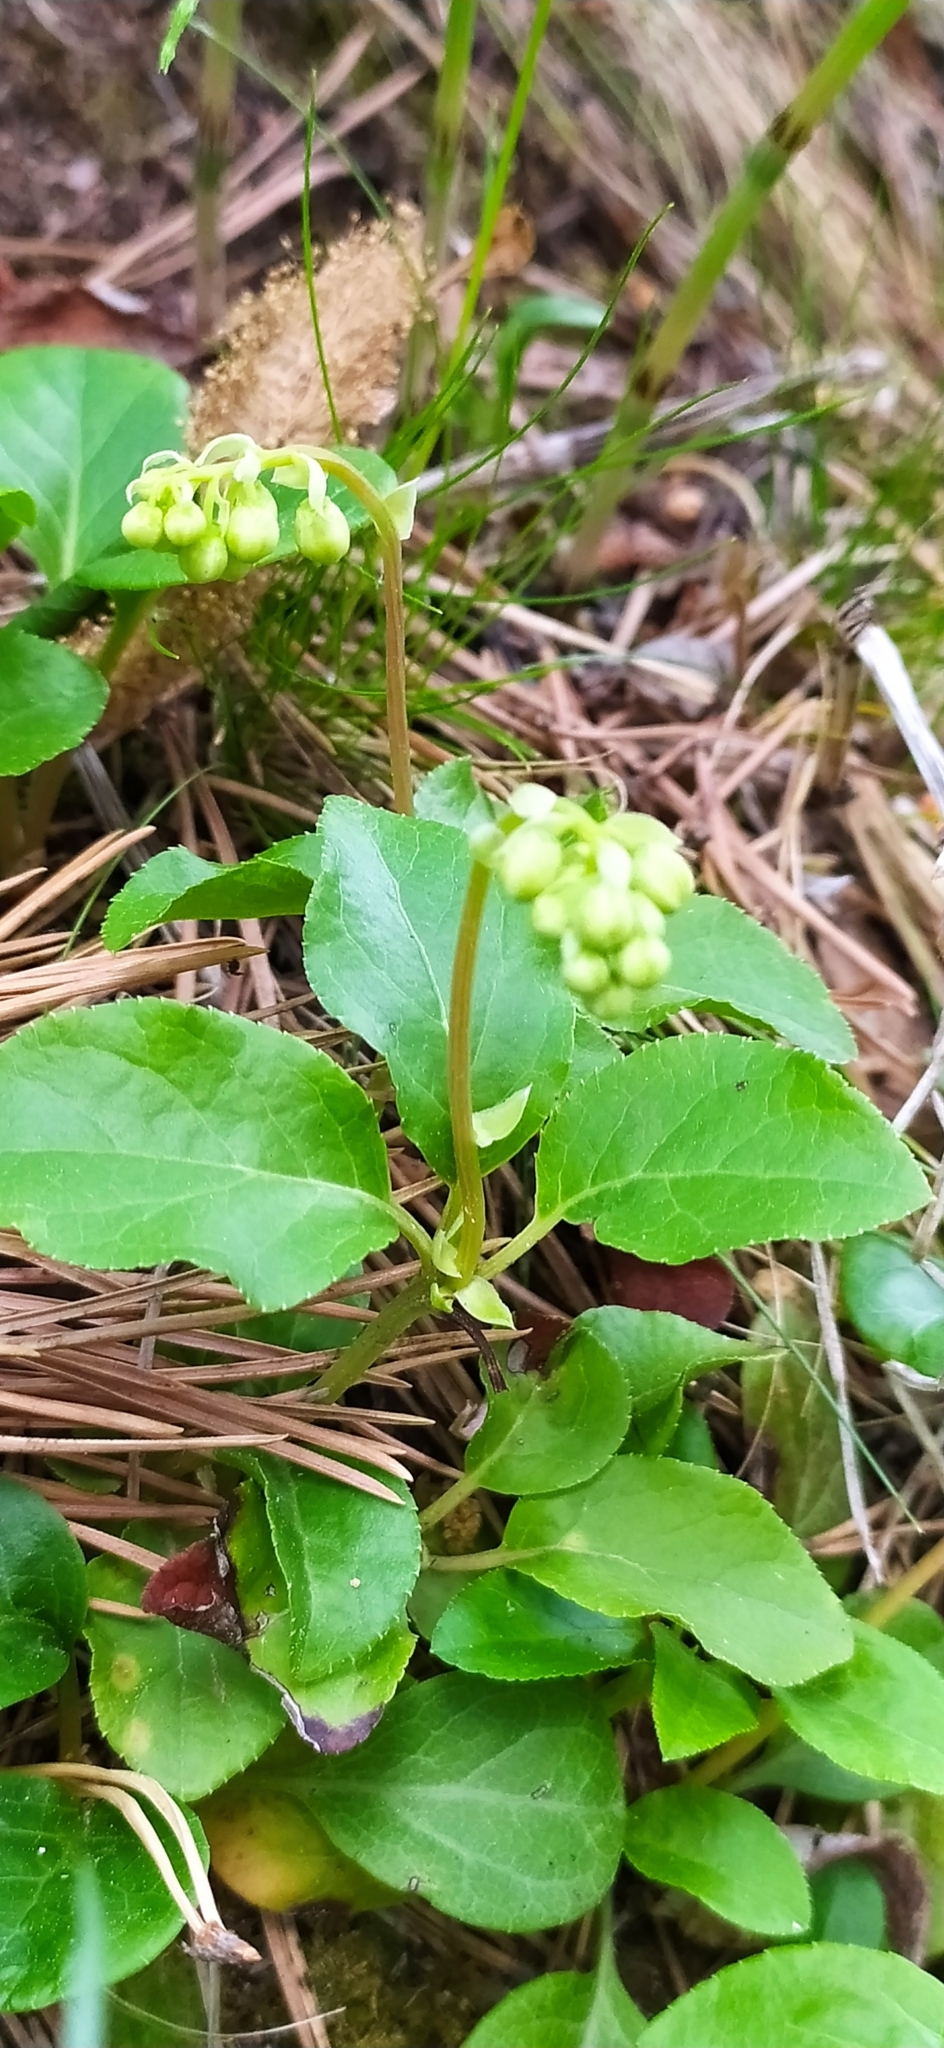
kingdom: Plantae
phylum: Tracheophyta
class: Magnoliopsida
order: Ericales
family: Ericaceae
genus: Orthilia
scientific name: Orthilia secunda
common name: One-sided orthilia
